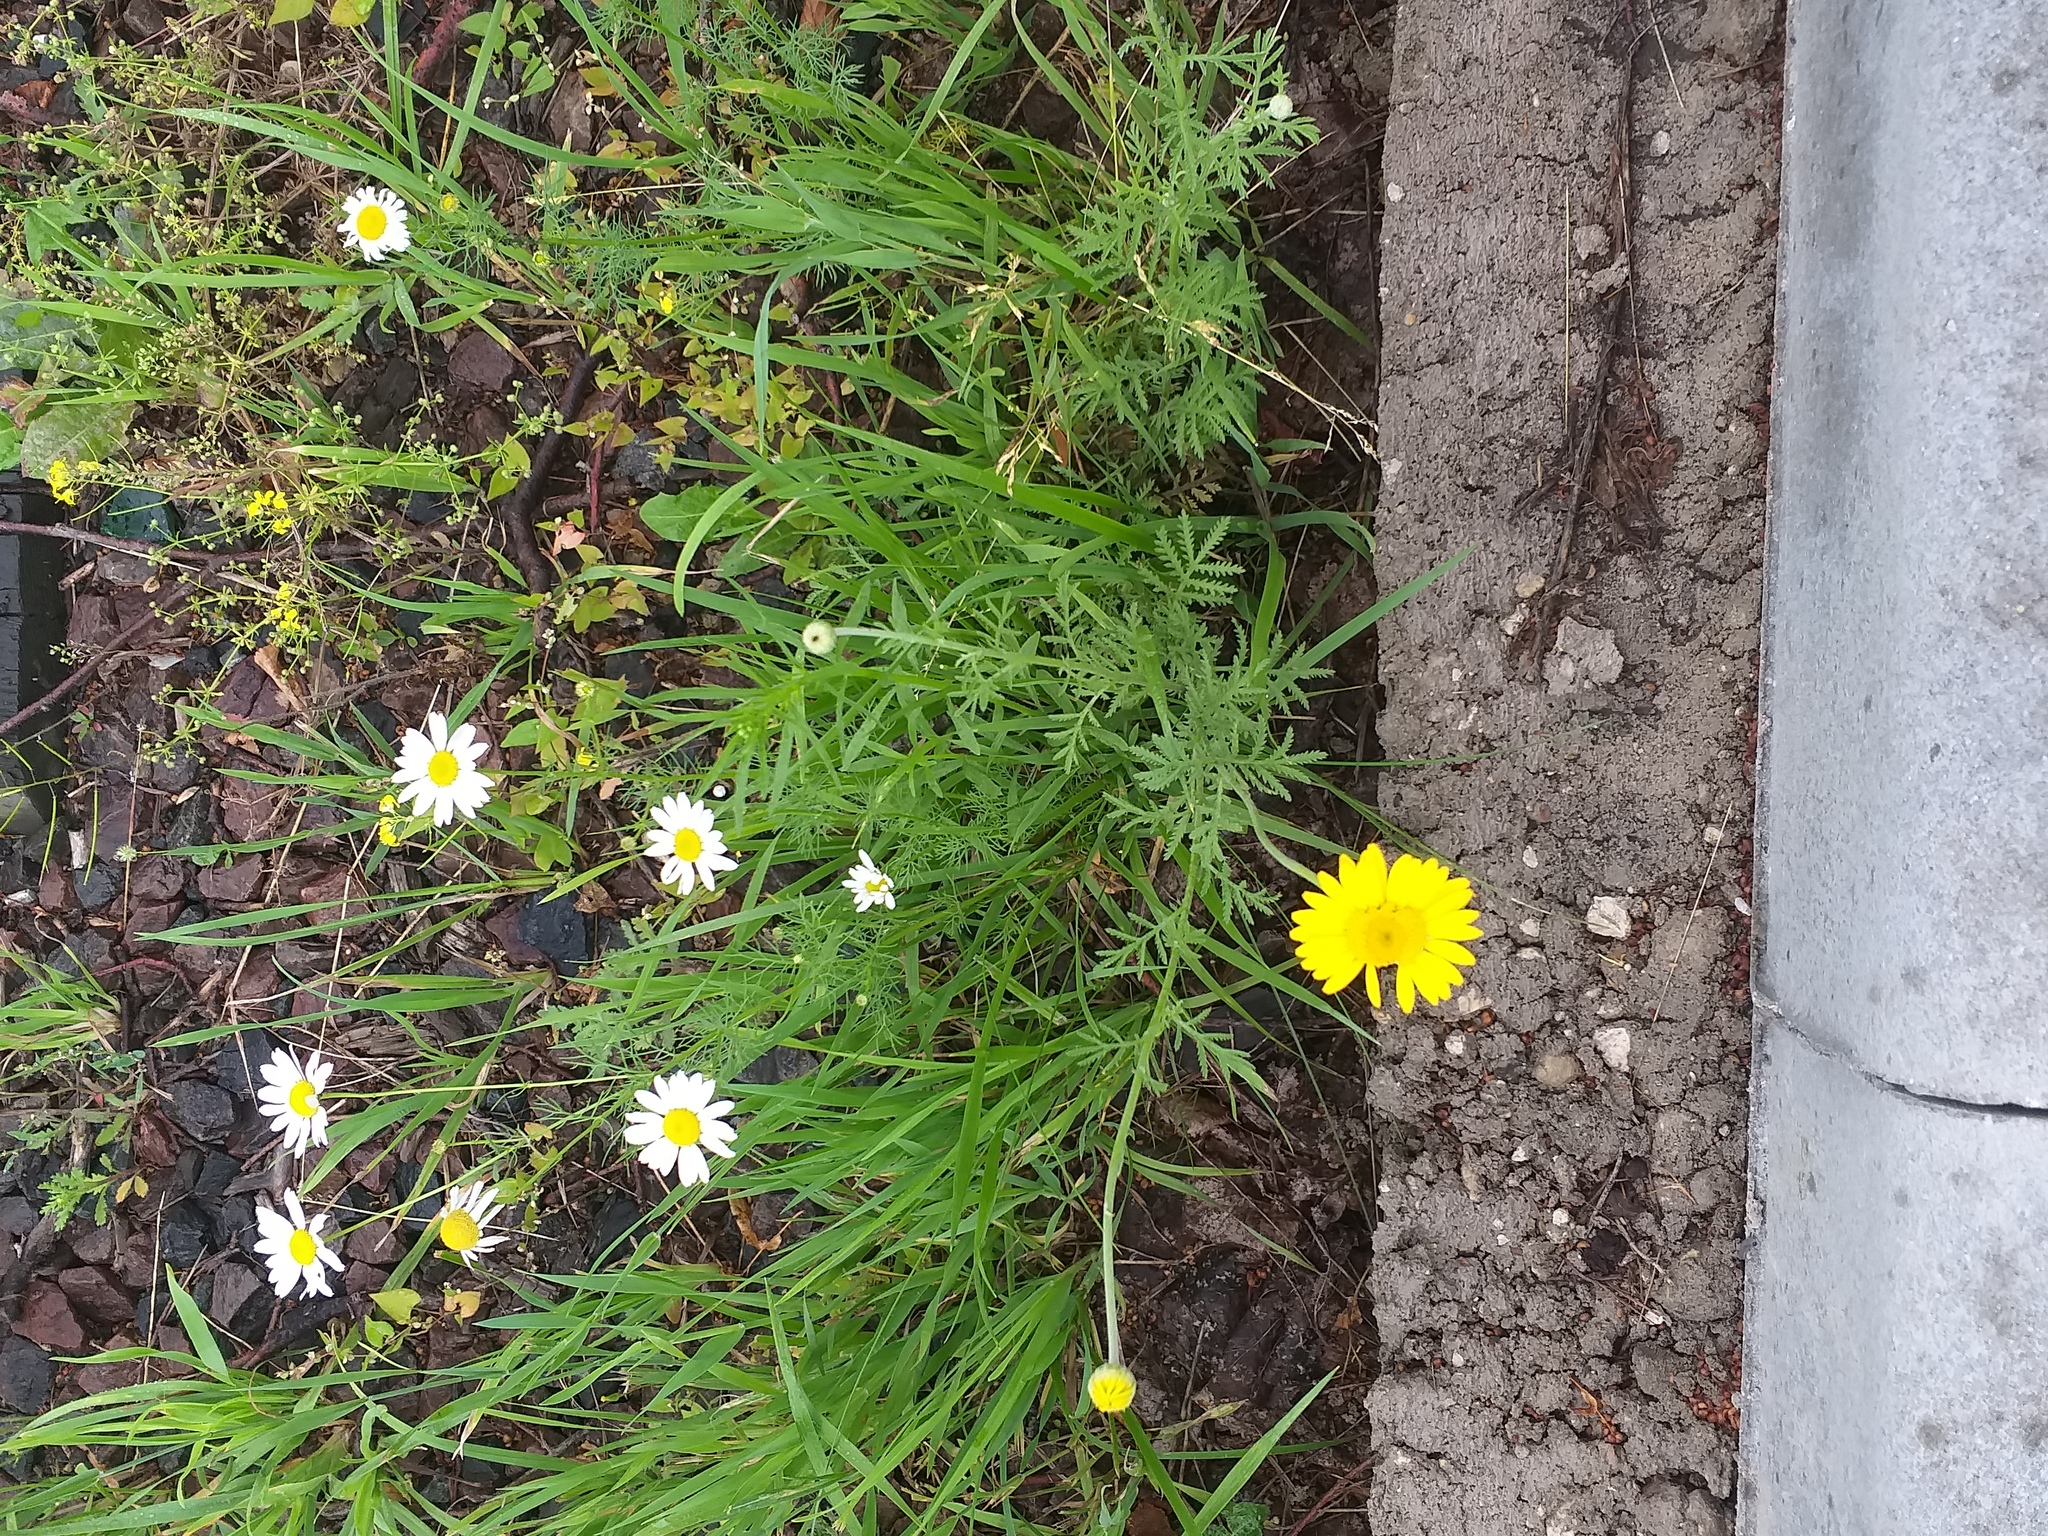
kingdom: Plantae
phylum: Tracheophyta
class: Magnoliopsida
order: Asterales
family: Asteraceae
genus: Cota
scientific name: Cota tinctoria
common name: Golden chamomile
